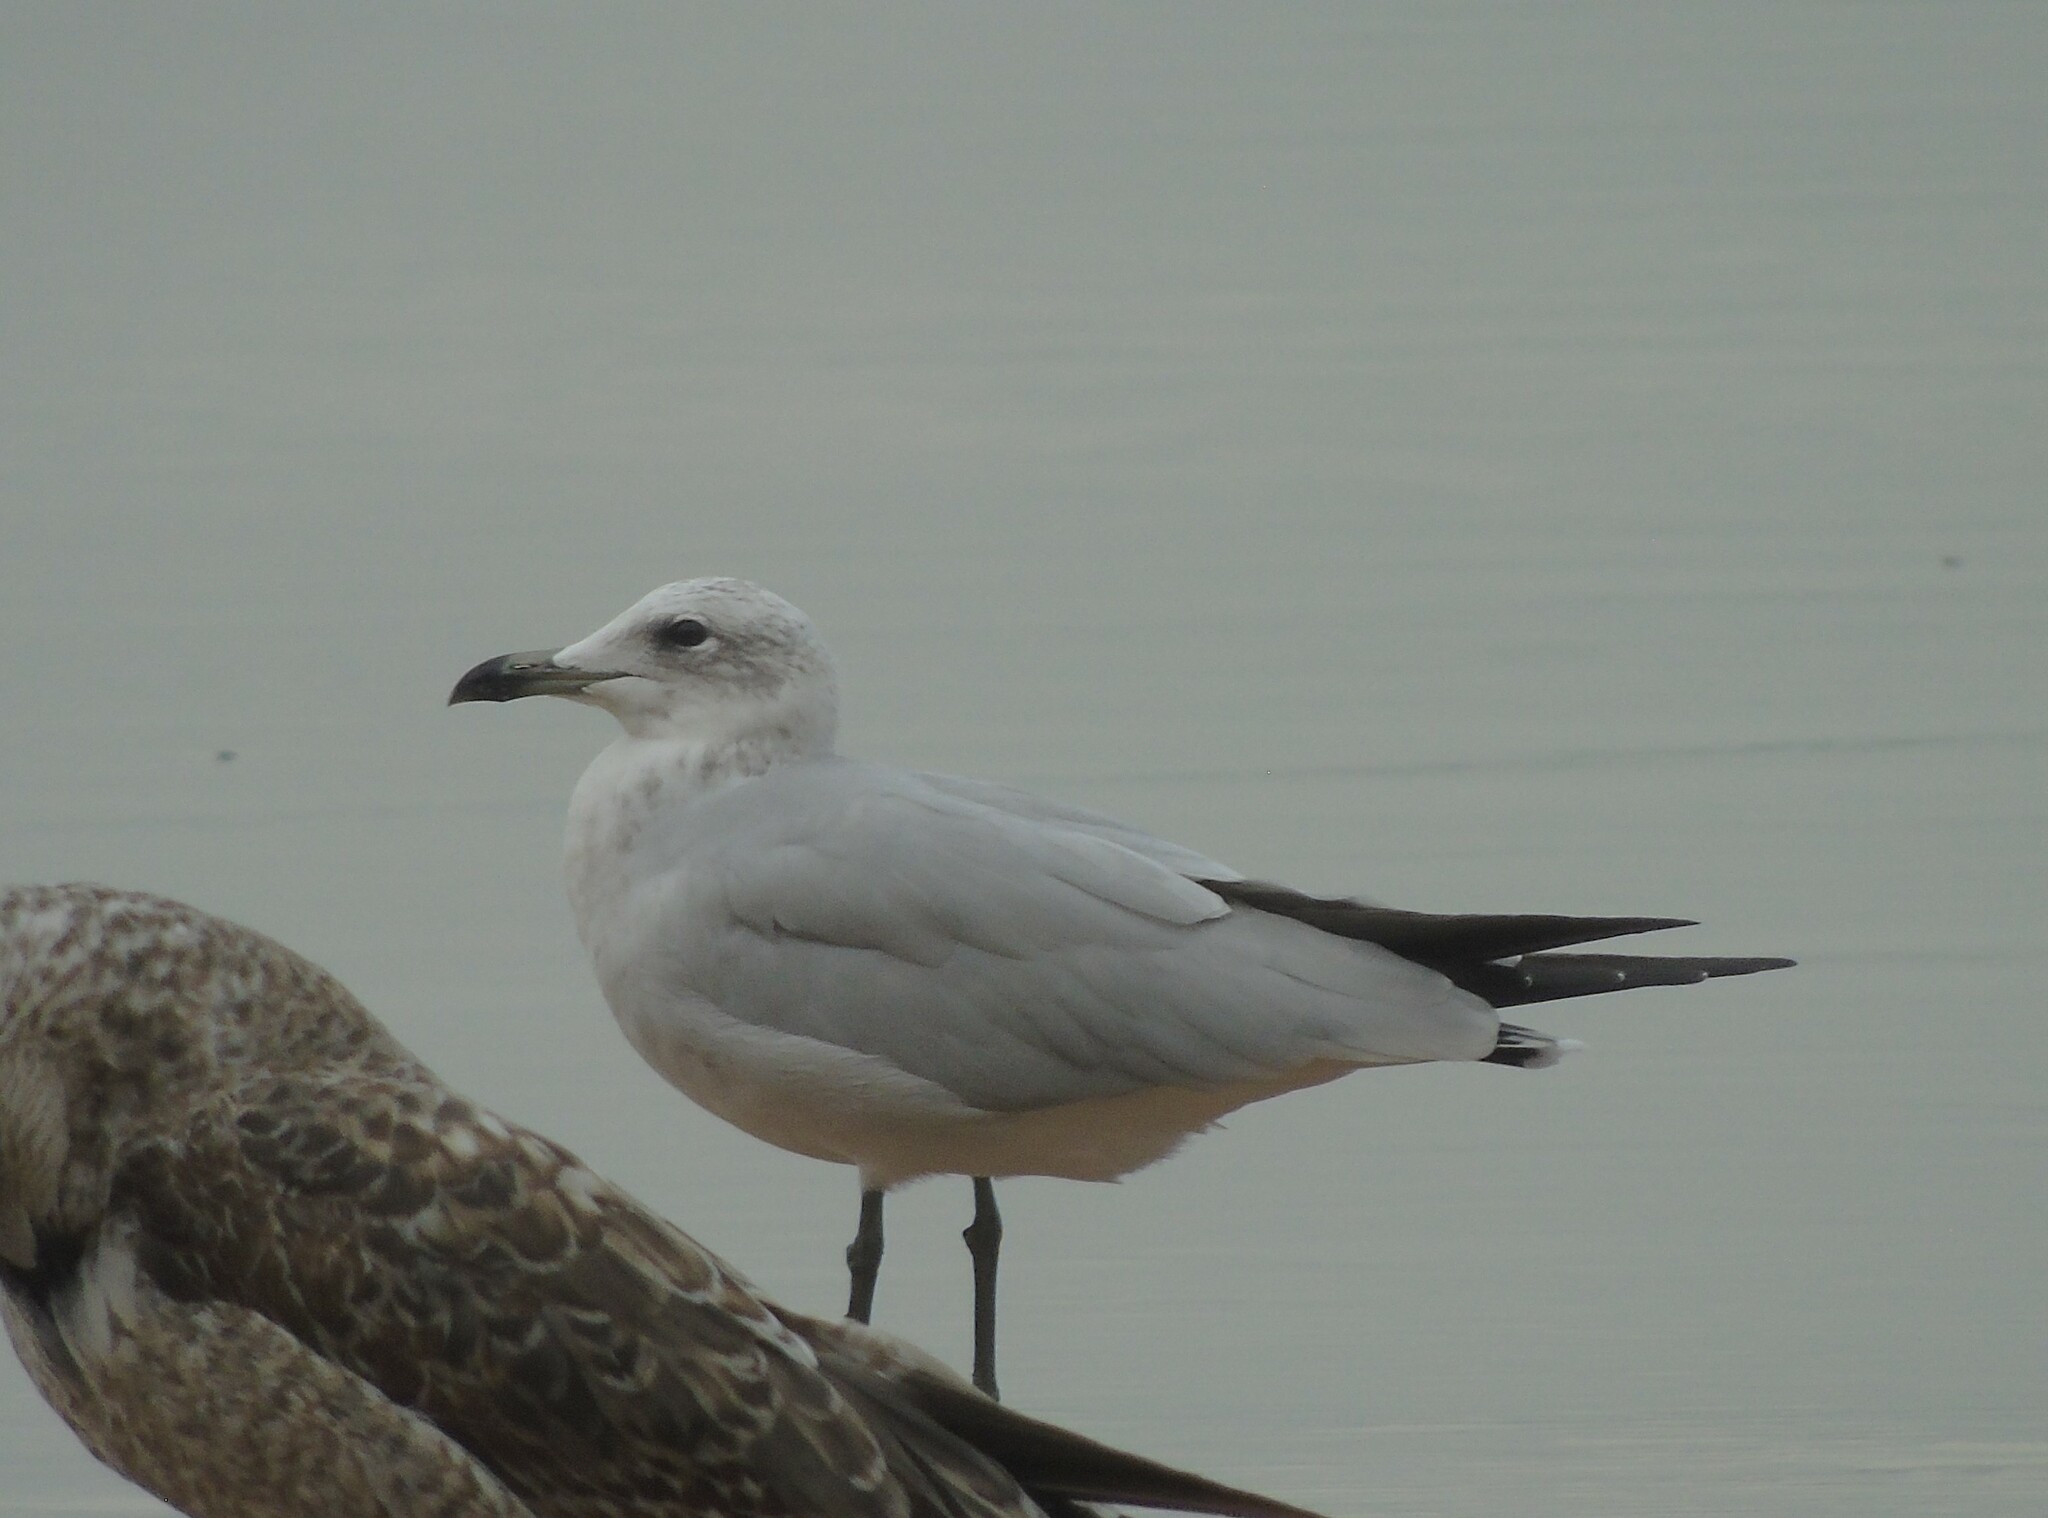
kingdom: Animalia
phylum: Chordata
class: Aves
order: Charadriiformes
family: Laridae
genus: Ichthyaetus
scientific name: Ichthyaetus audouinii
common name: Audouin's gull
